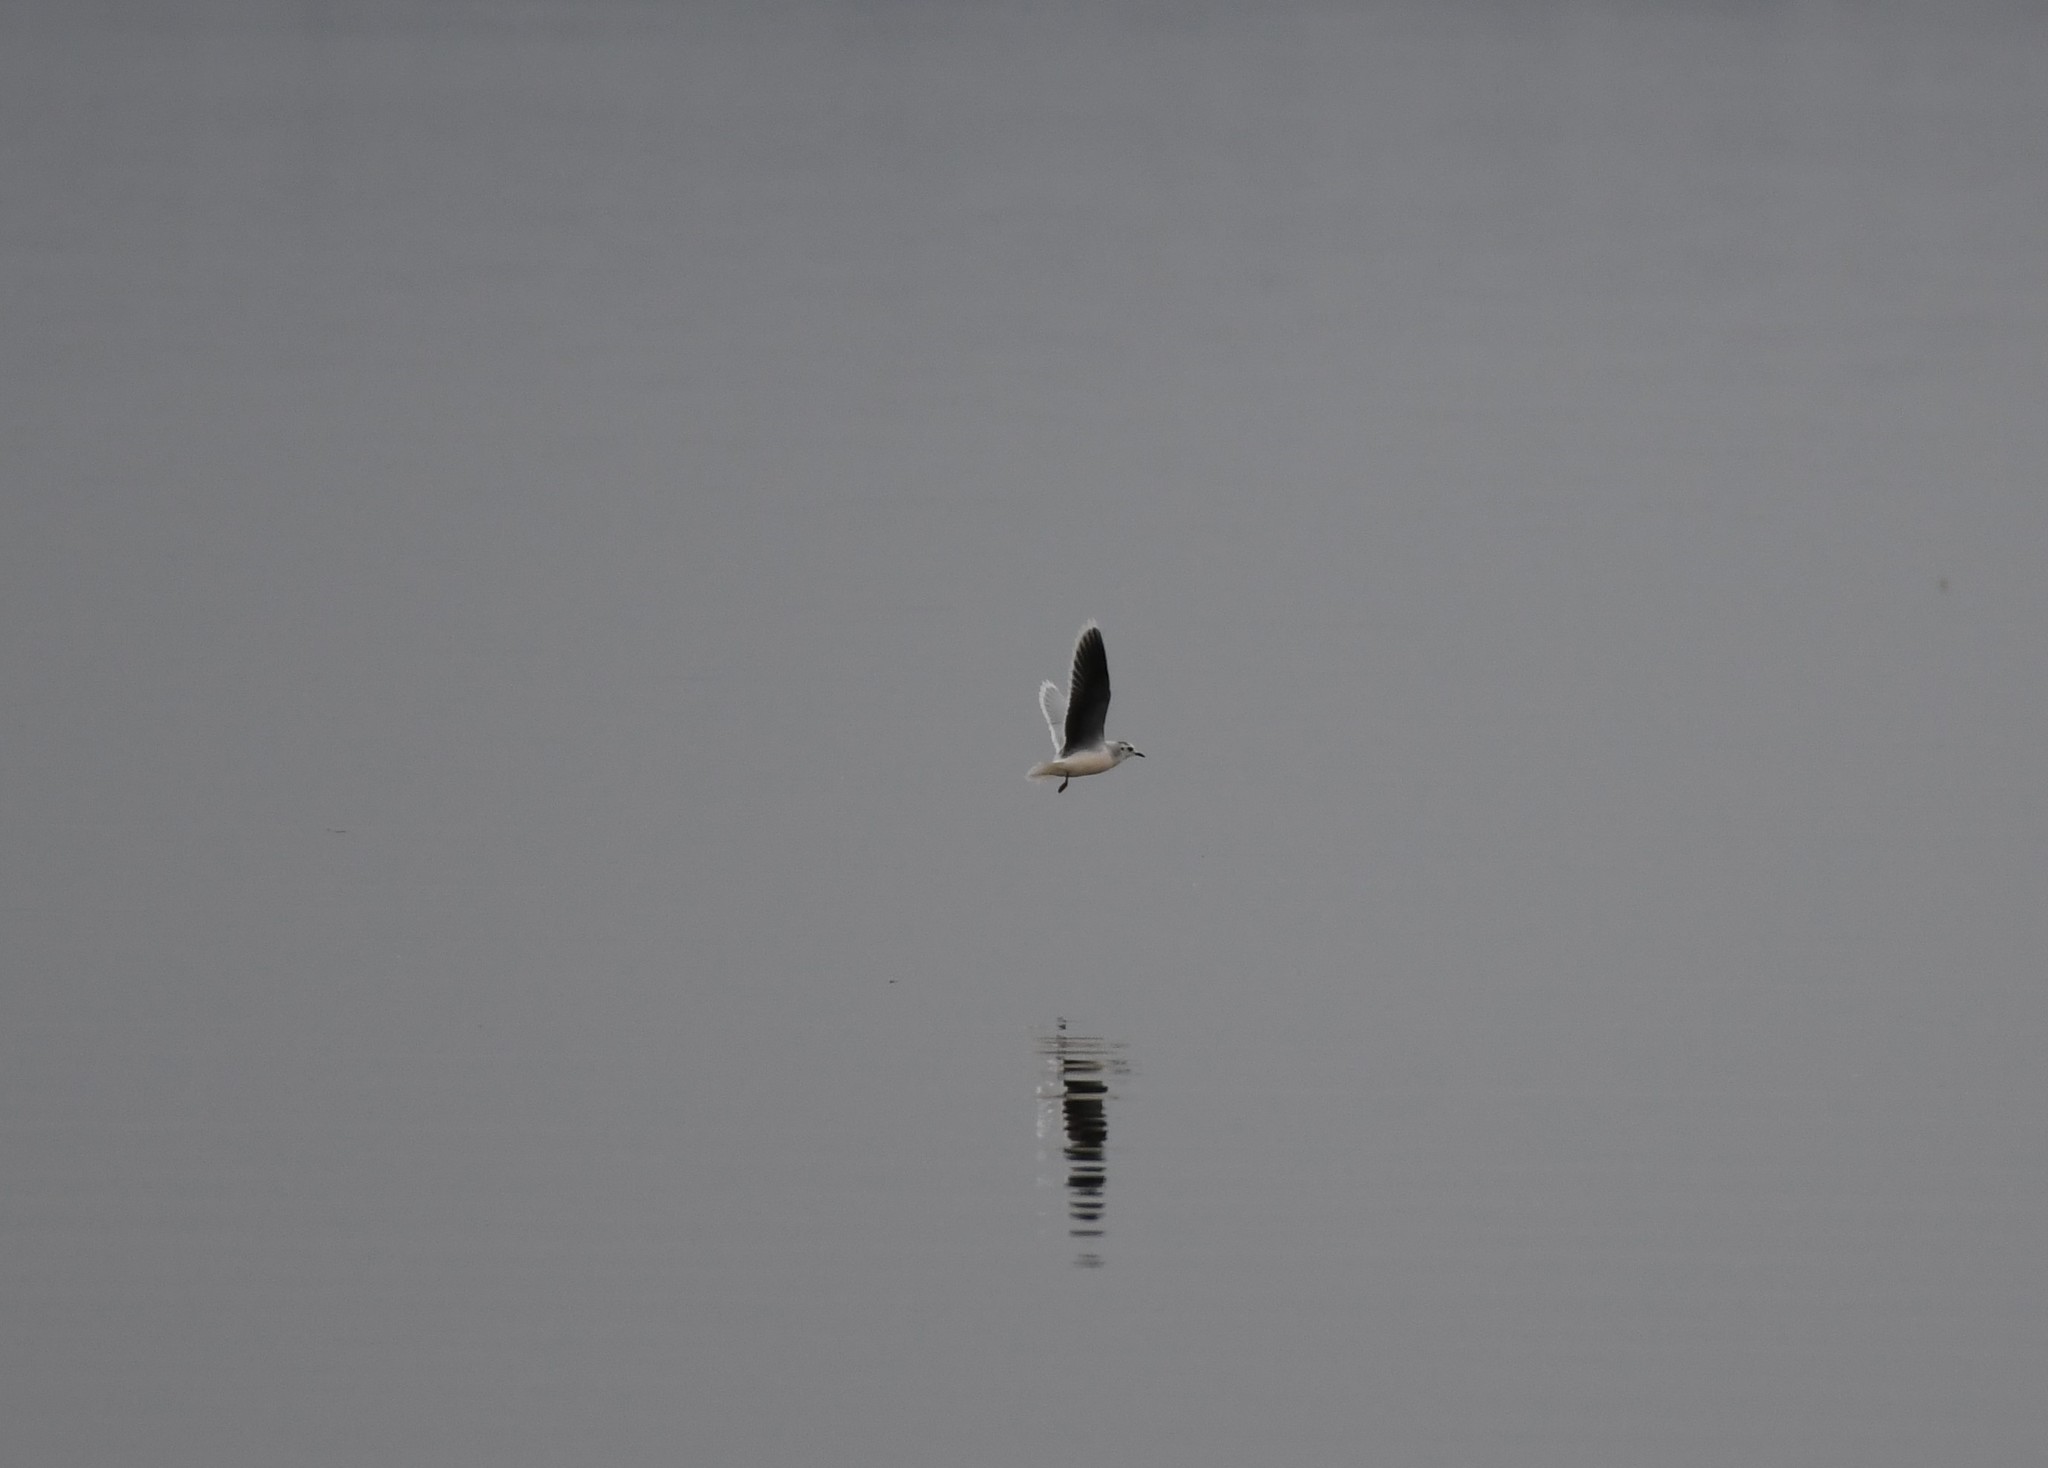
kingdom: Animalia
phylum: Chordata
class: Aves
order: Charadriiformes
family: Laridae
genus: Hydrocoloeus
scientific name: Hydrocoloeus minutus
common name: Little gull
